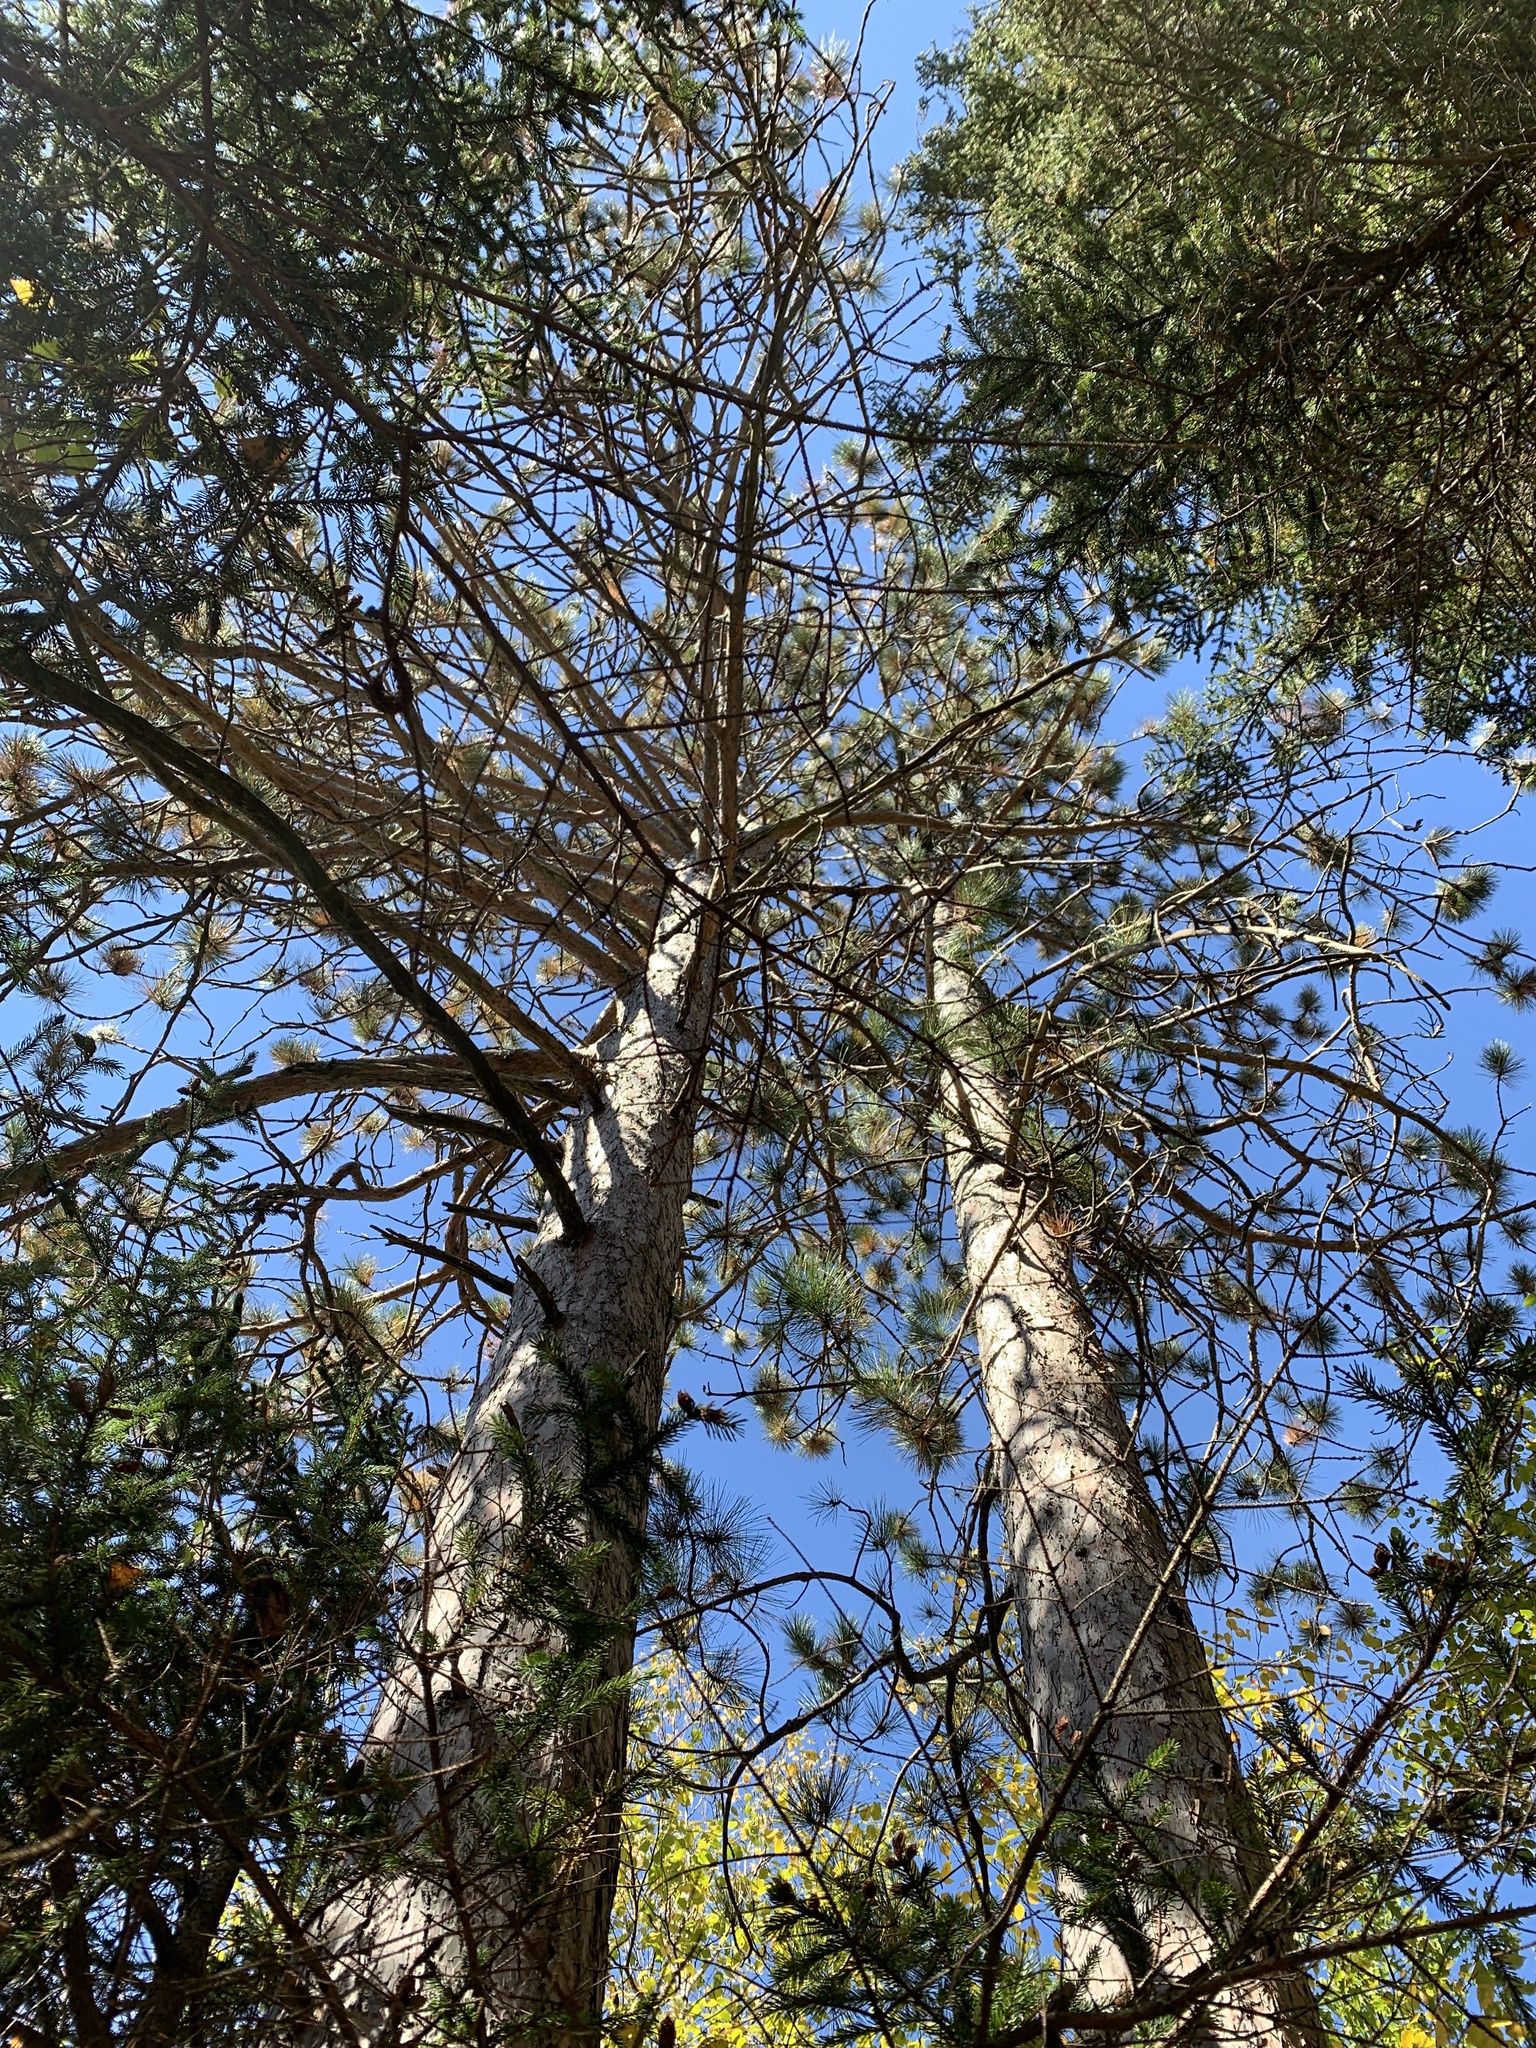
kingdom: Plantae
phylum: Tracheophyta
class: Pinopsida
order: Pinales
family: Pinaceae
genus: Pinus
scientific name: Pinus resinosa
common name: Norway pine
